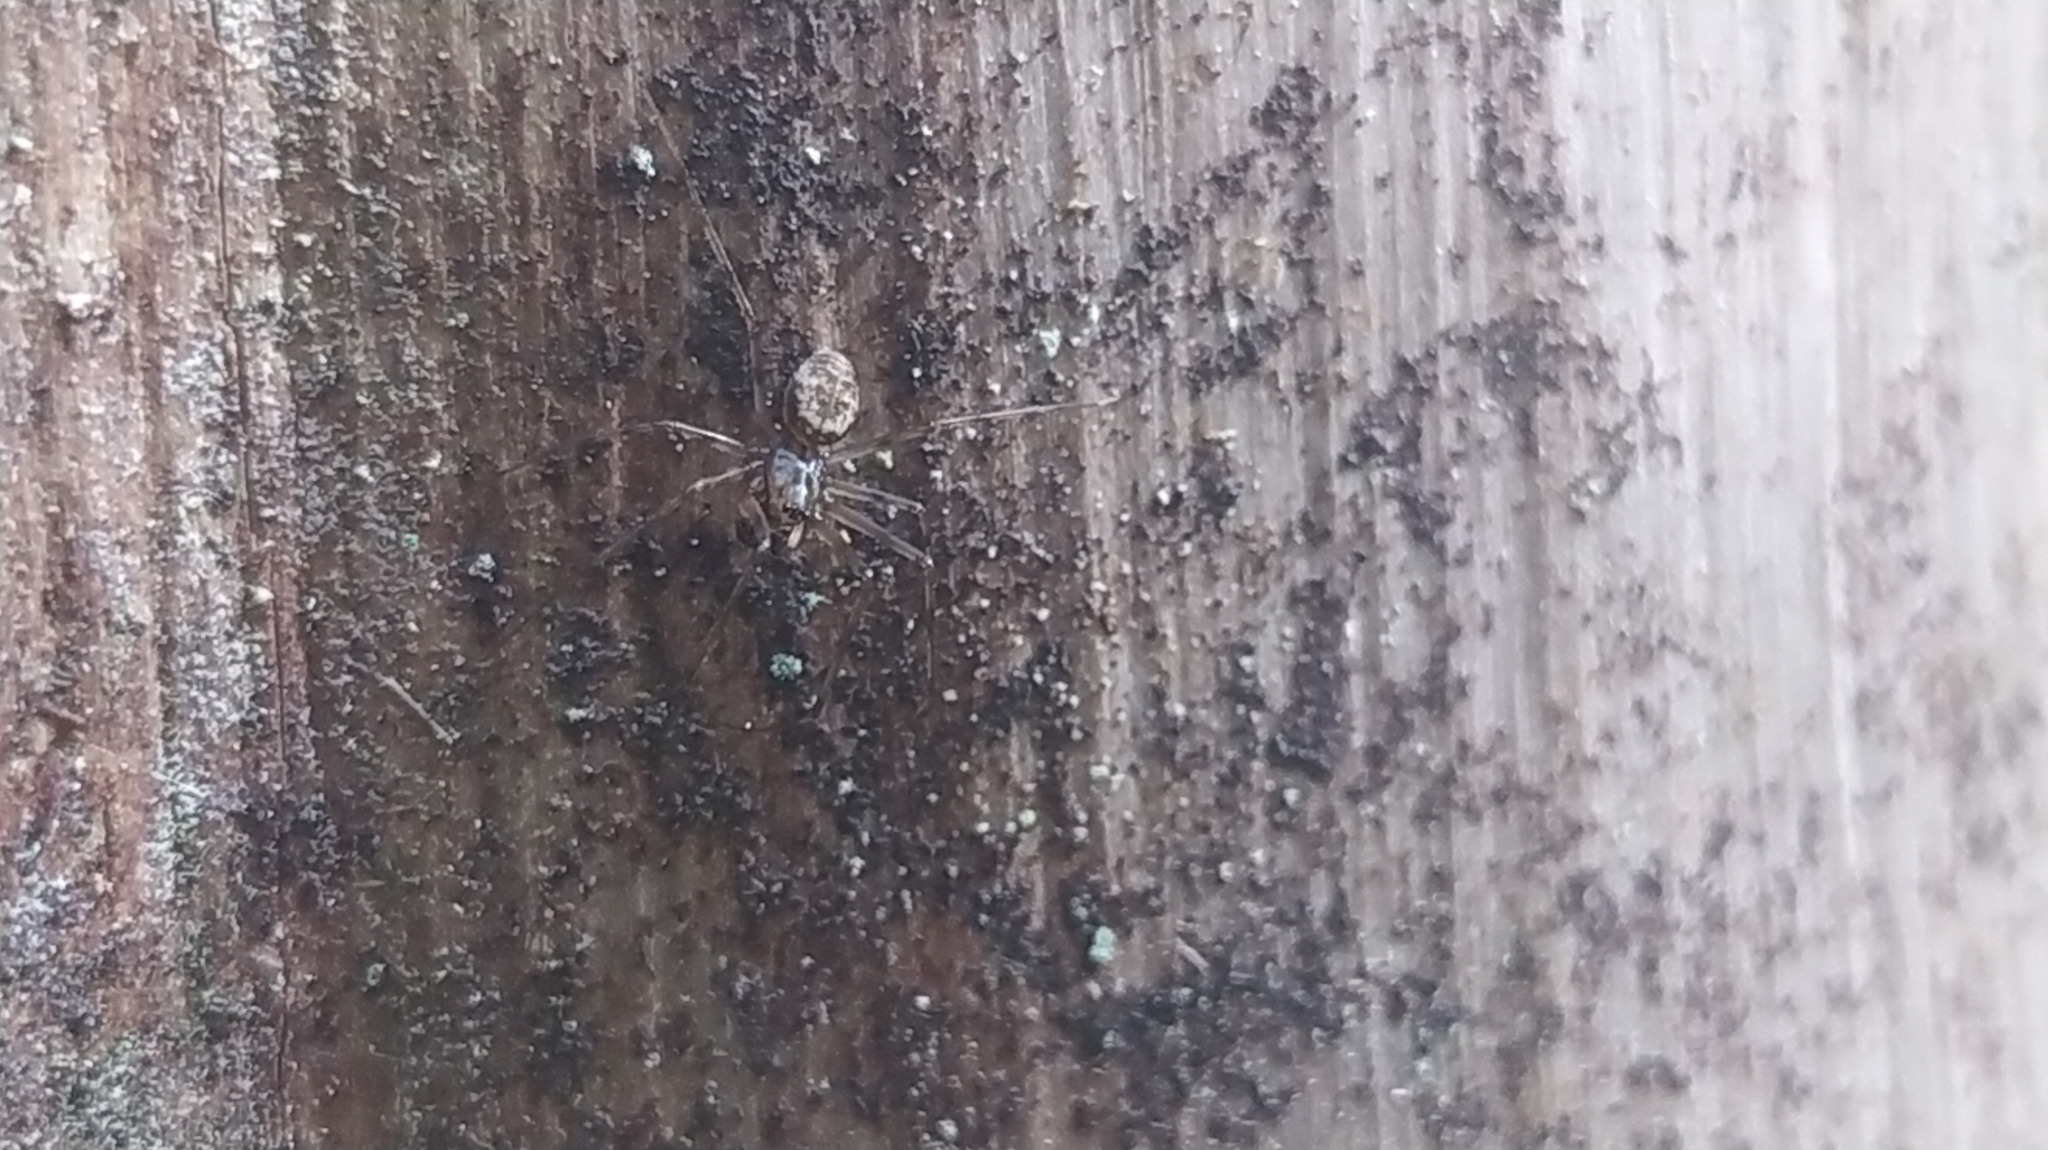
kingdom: Animalia
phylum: Arthropoda
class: Arachnida
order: Araneae
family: Linyphiidae
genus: Drapetisca
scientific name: Drapetisca socialis
